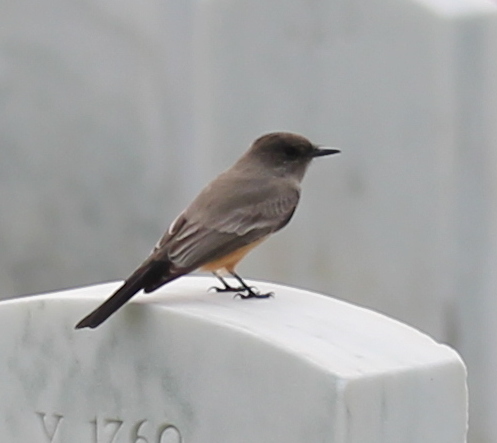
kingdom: Animalia
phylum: Chordata
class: Aves
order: Passeriformes
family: Tyrannidae
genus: Sayornis
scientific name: Sayornis saya
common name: Say's phoebe
